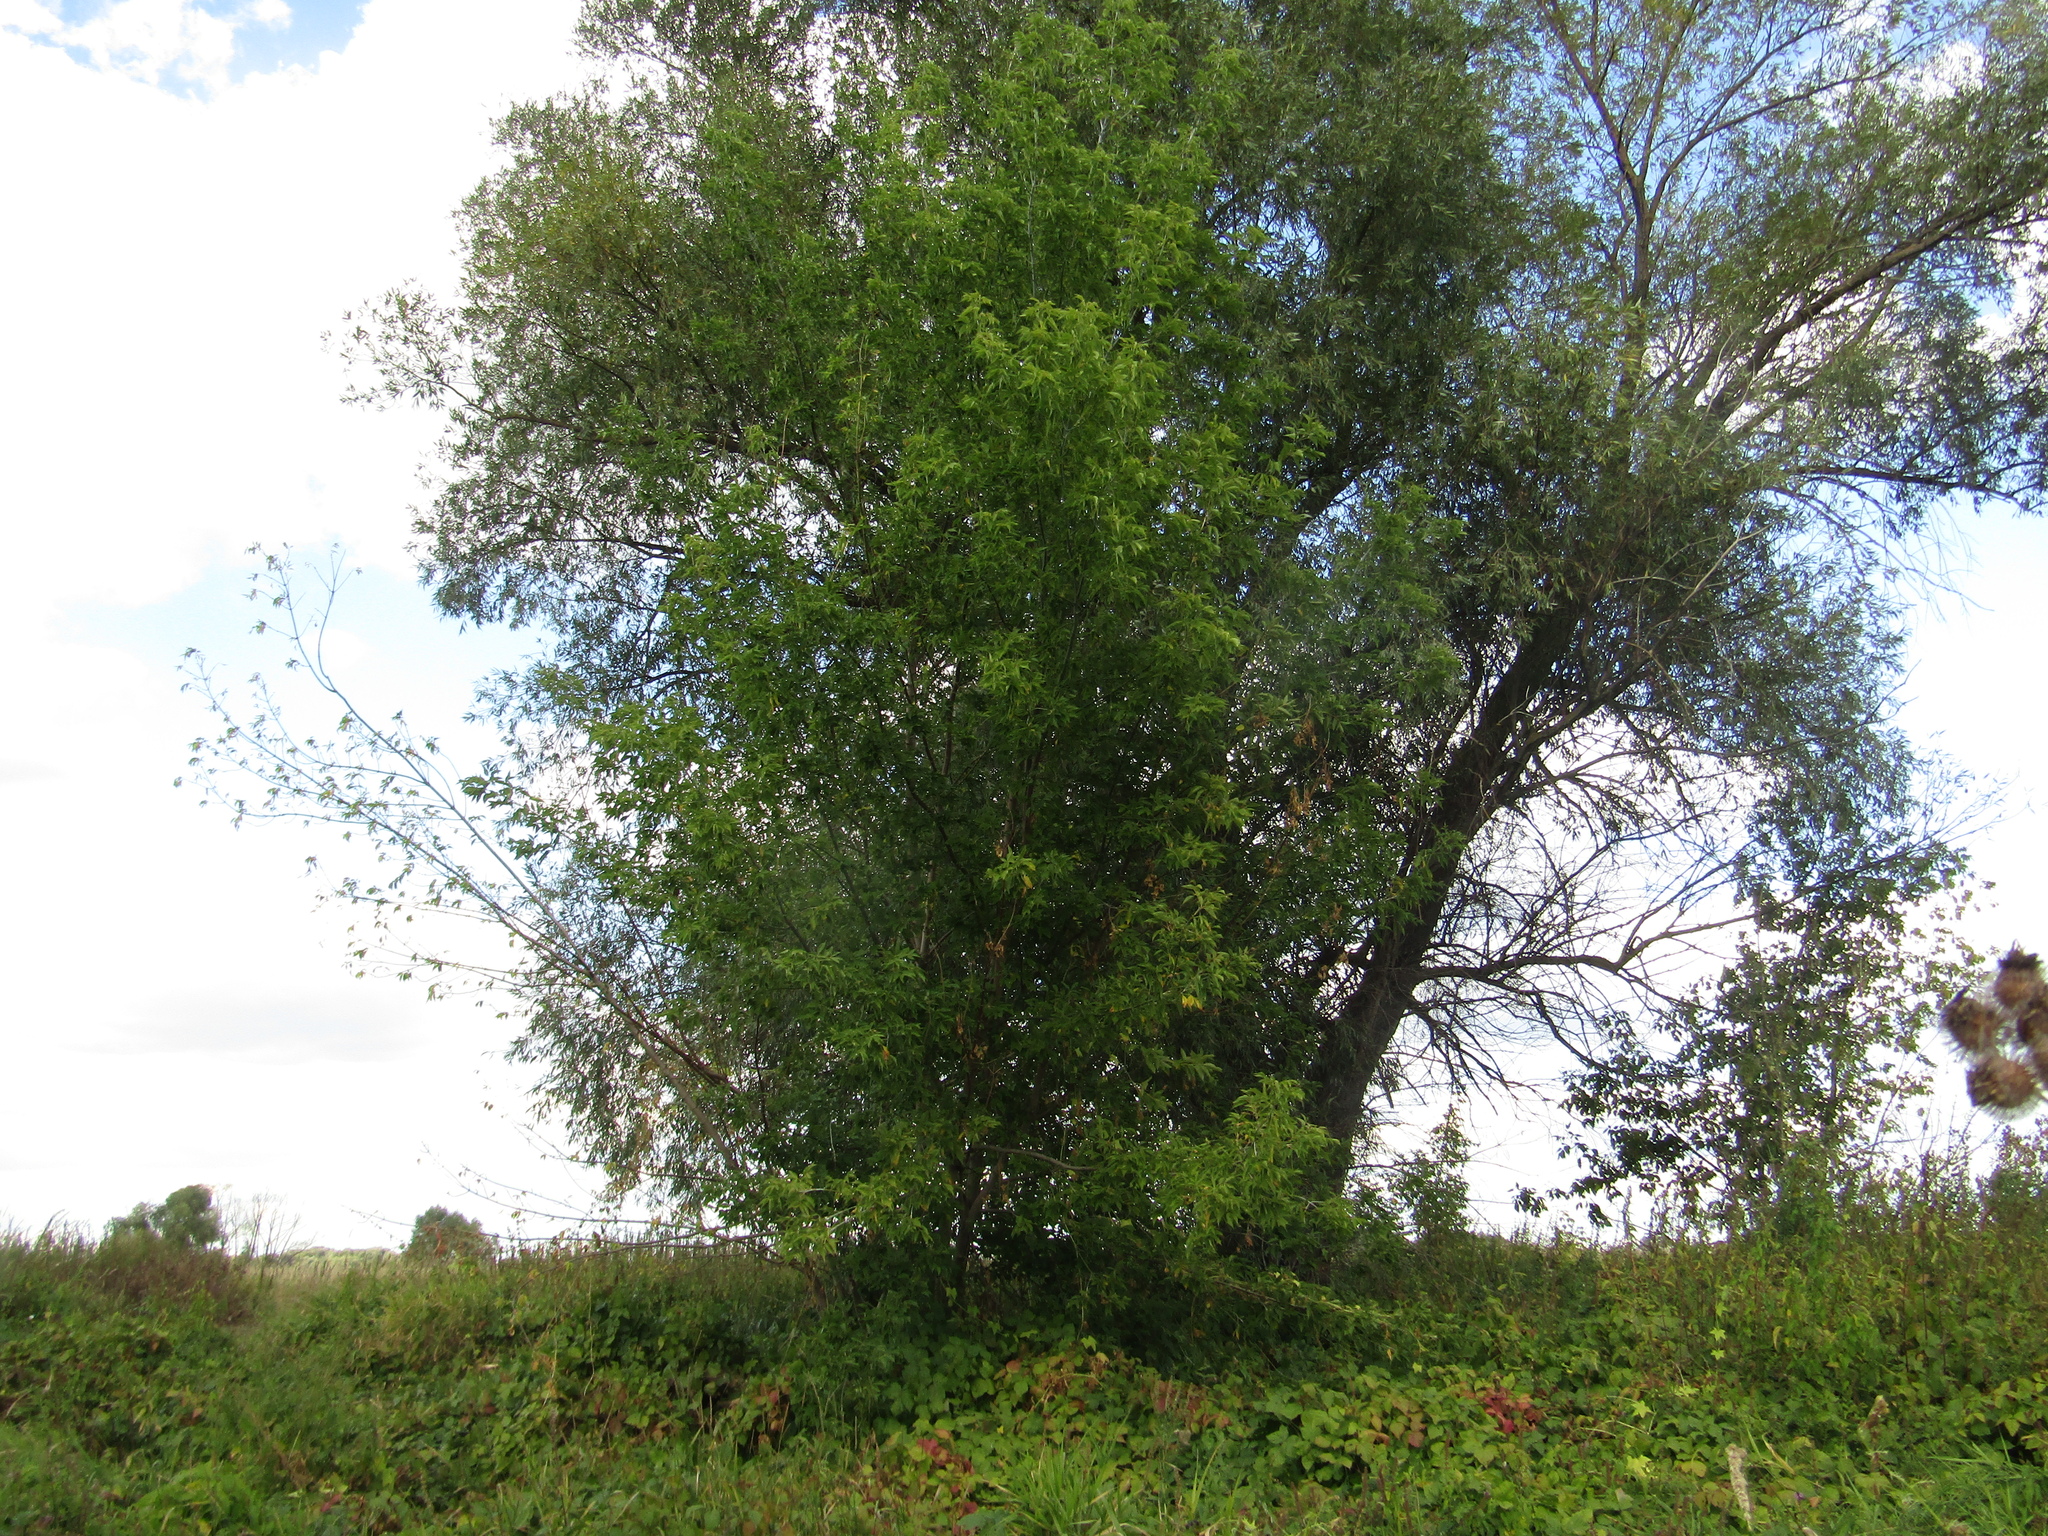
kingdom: Plantae
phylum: Tracheophyta
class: Magnoliopsida
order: Sapindales
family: Sapindaceae
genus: Acer
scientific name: Acer negundo
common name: Ashleaf maple
